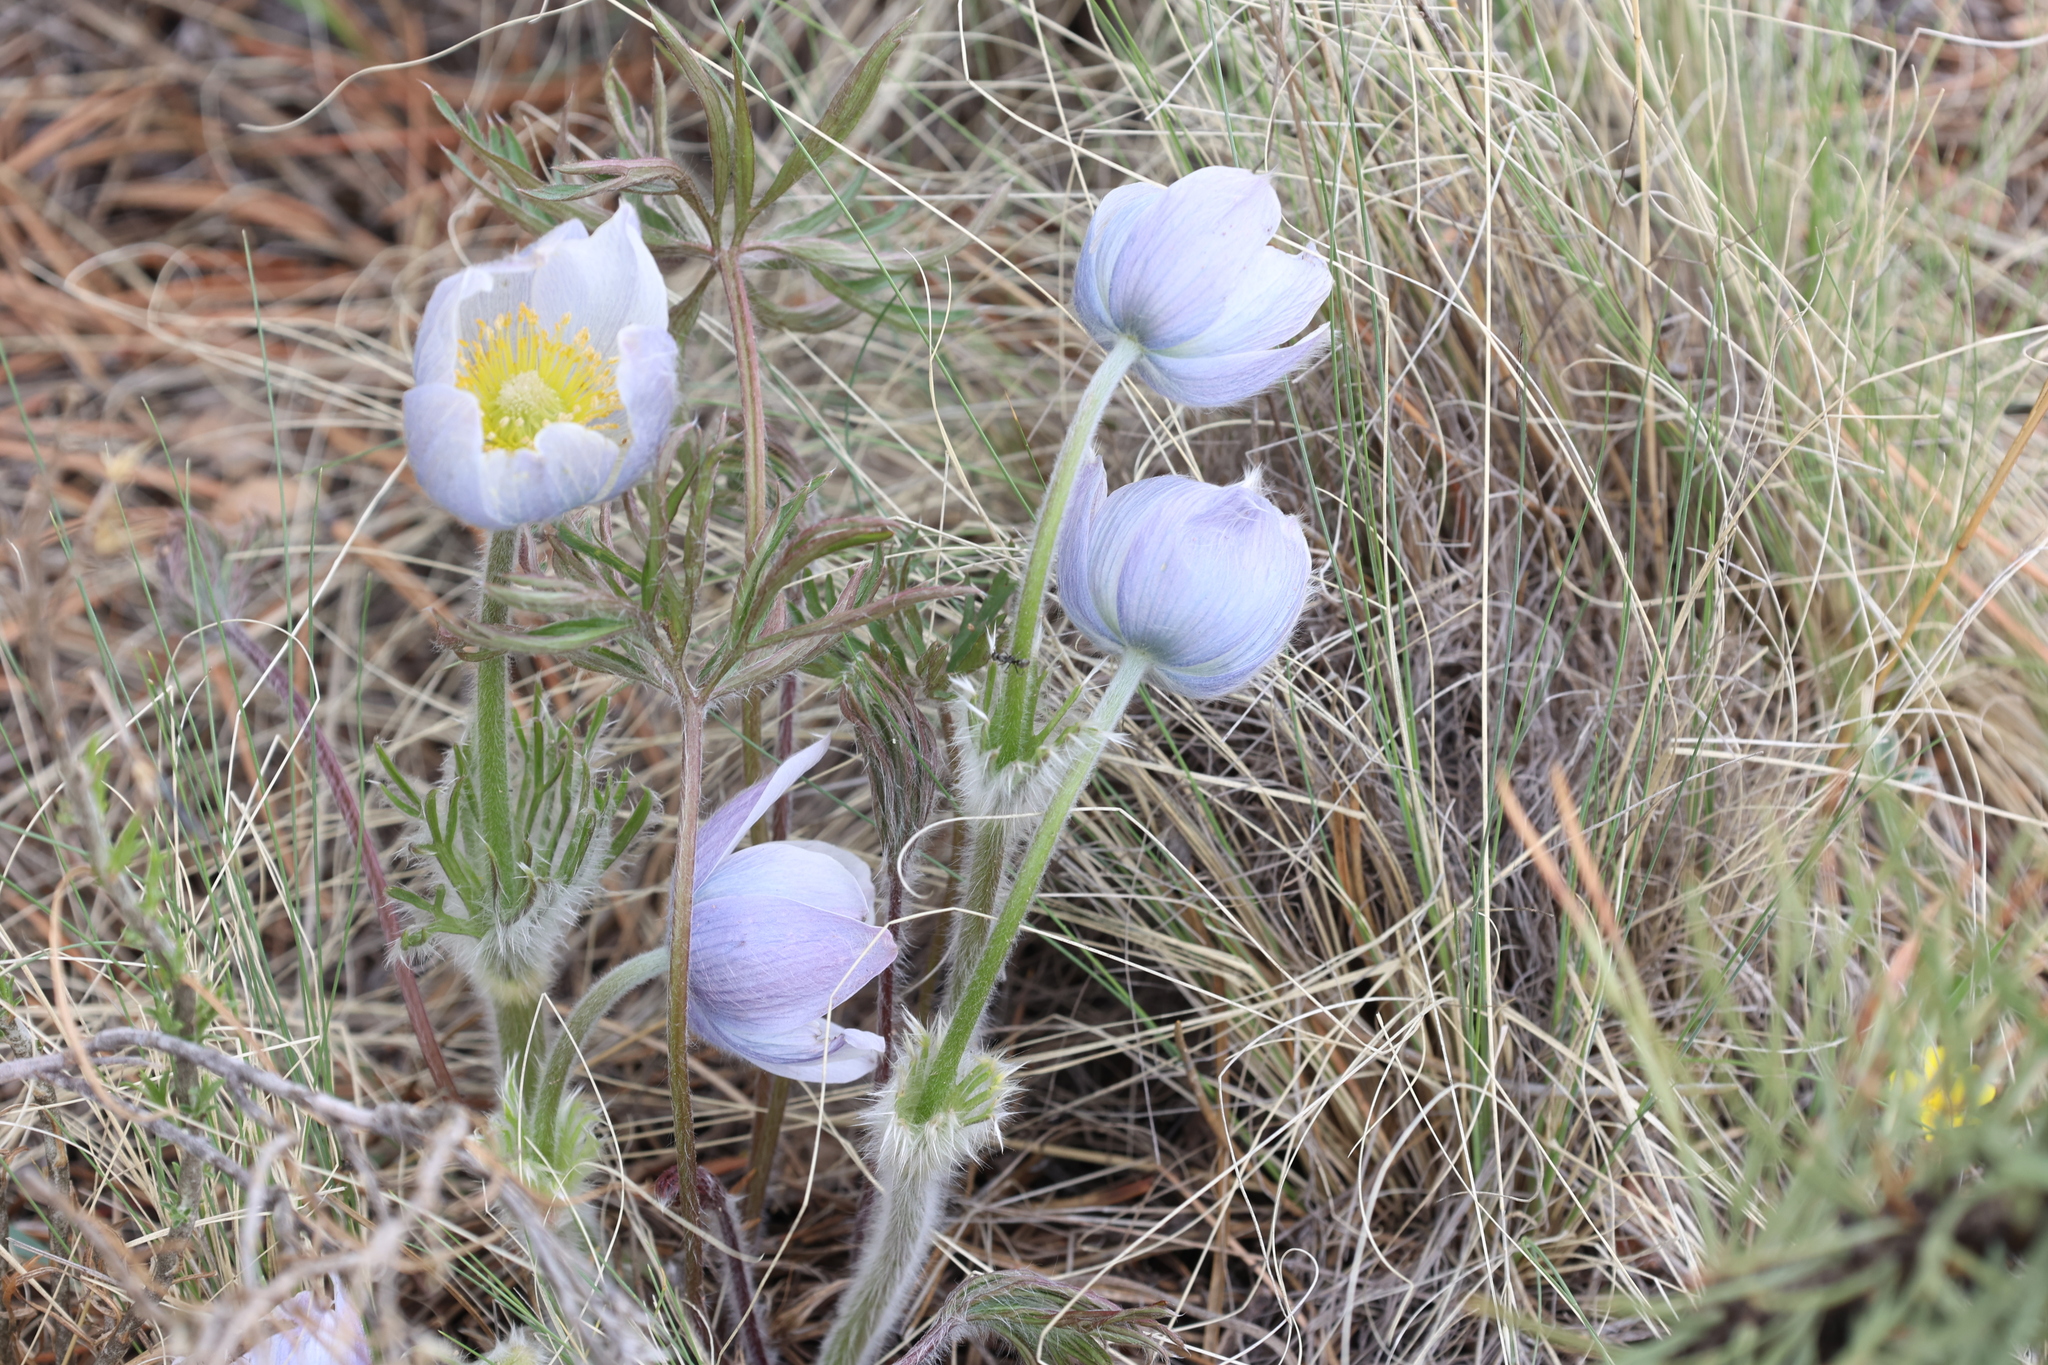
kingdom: Plantae
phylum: Tracheophyta
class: Magnoliopsida
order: Ranunculales
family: Ranunculaceae
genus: Pulsatilla
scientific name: Pulsatilla nuttalliana
